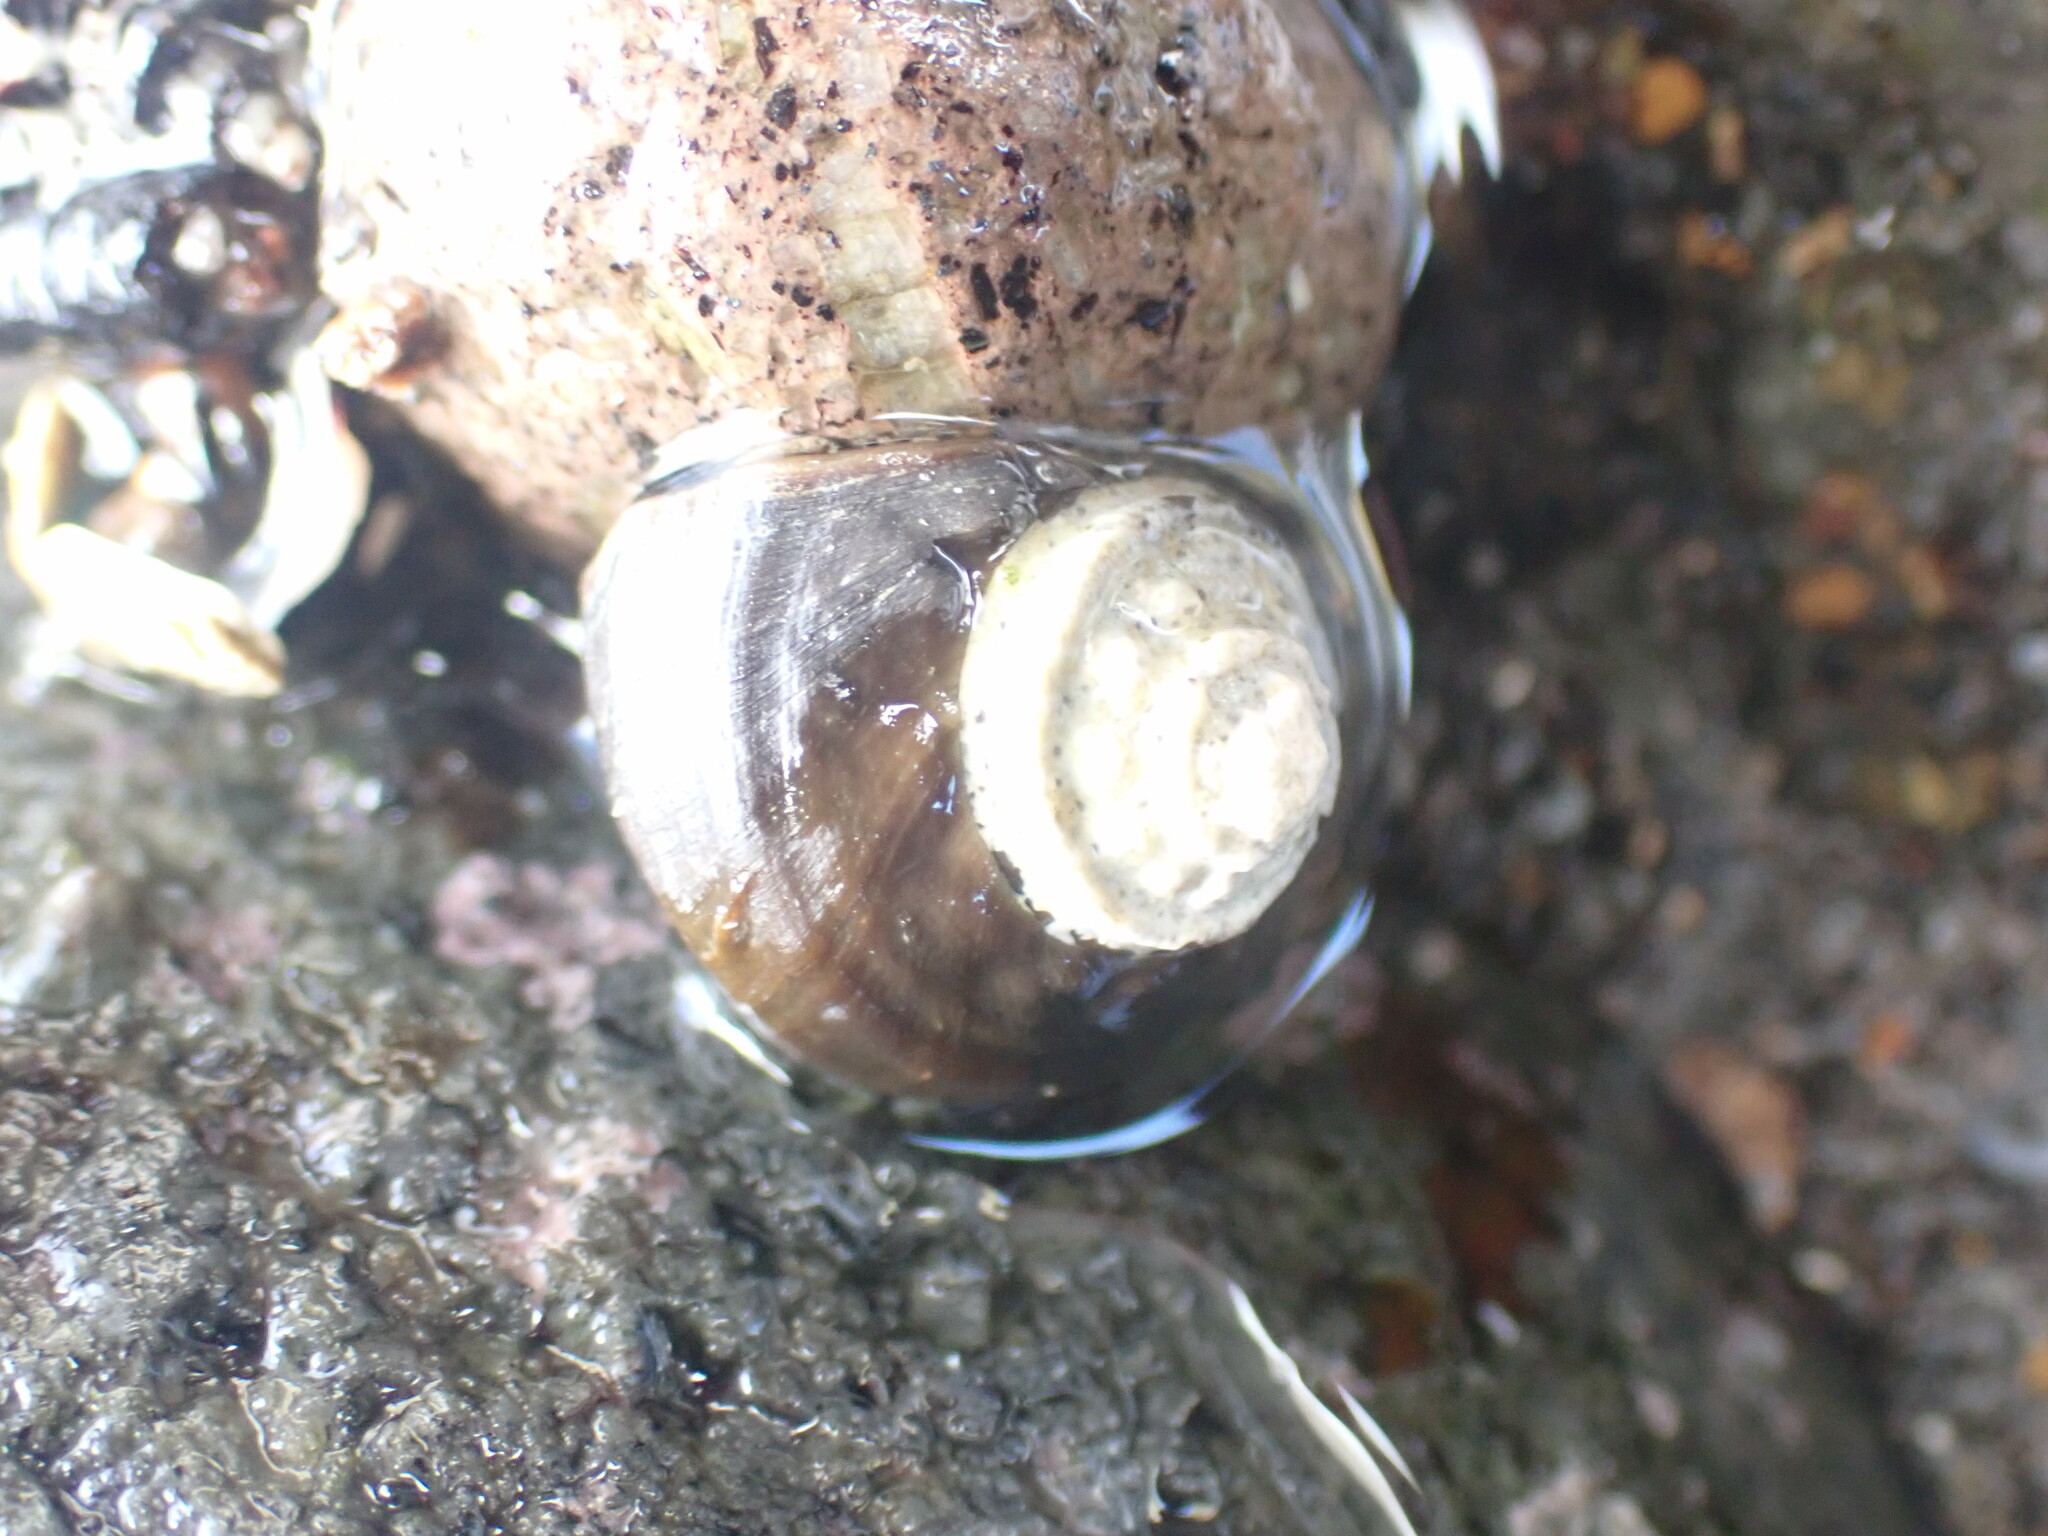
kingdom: Animalia
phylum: Mollusca
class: Gastropoda
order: Trochida
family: Turbinidae
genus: Lunella
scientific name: Lunella smaragda
